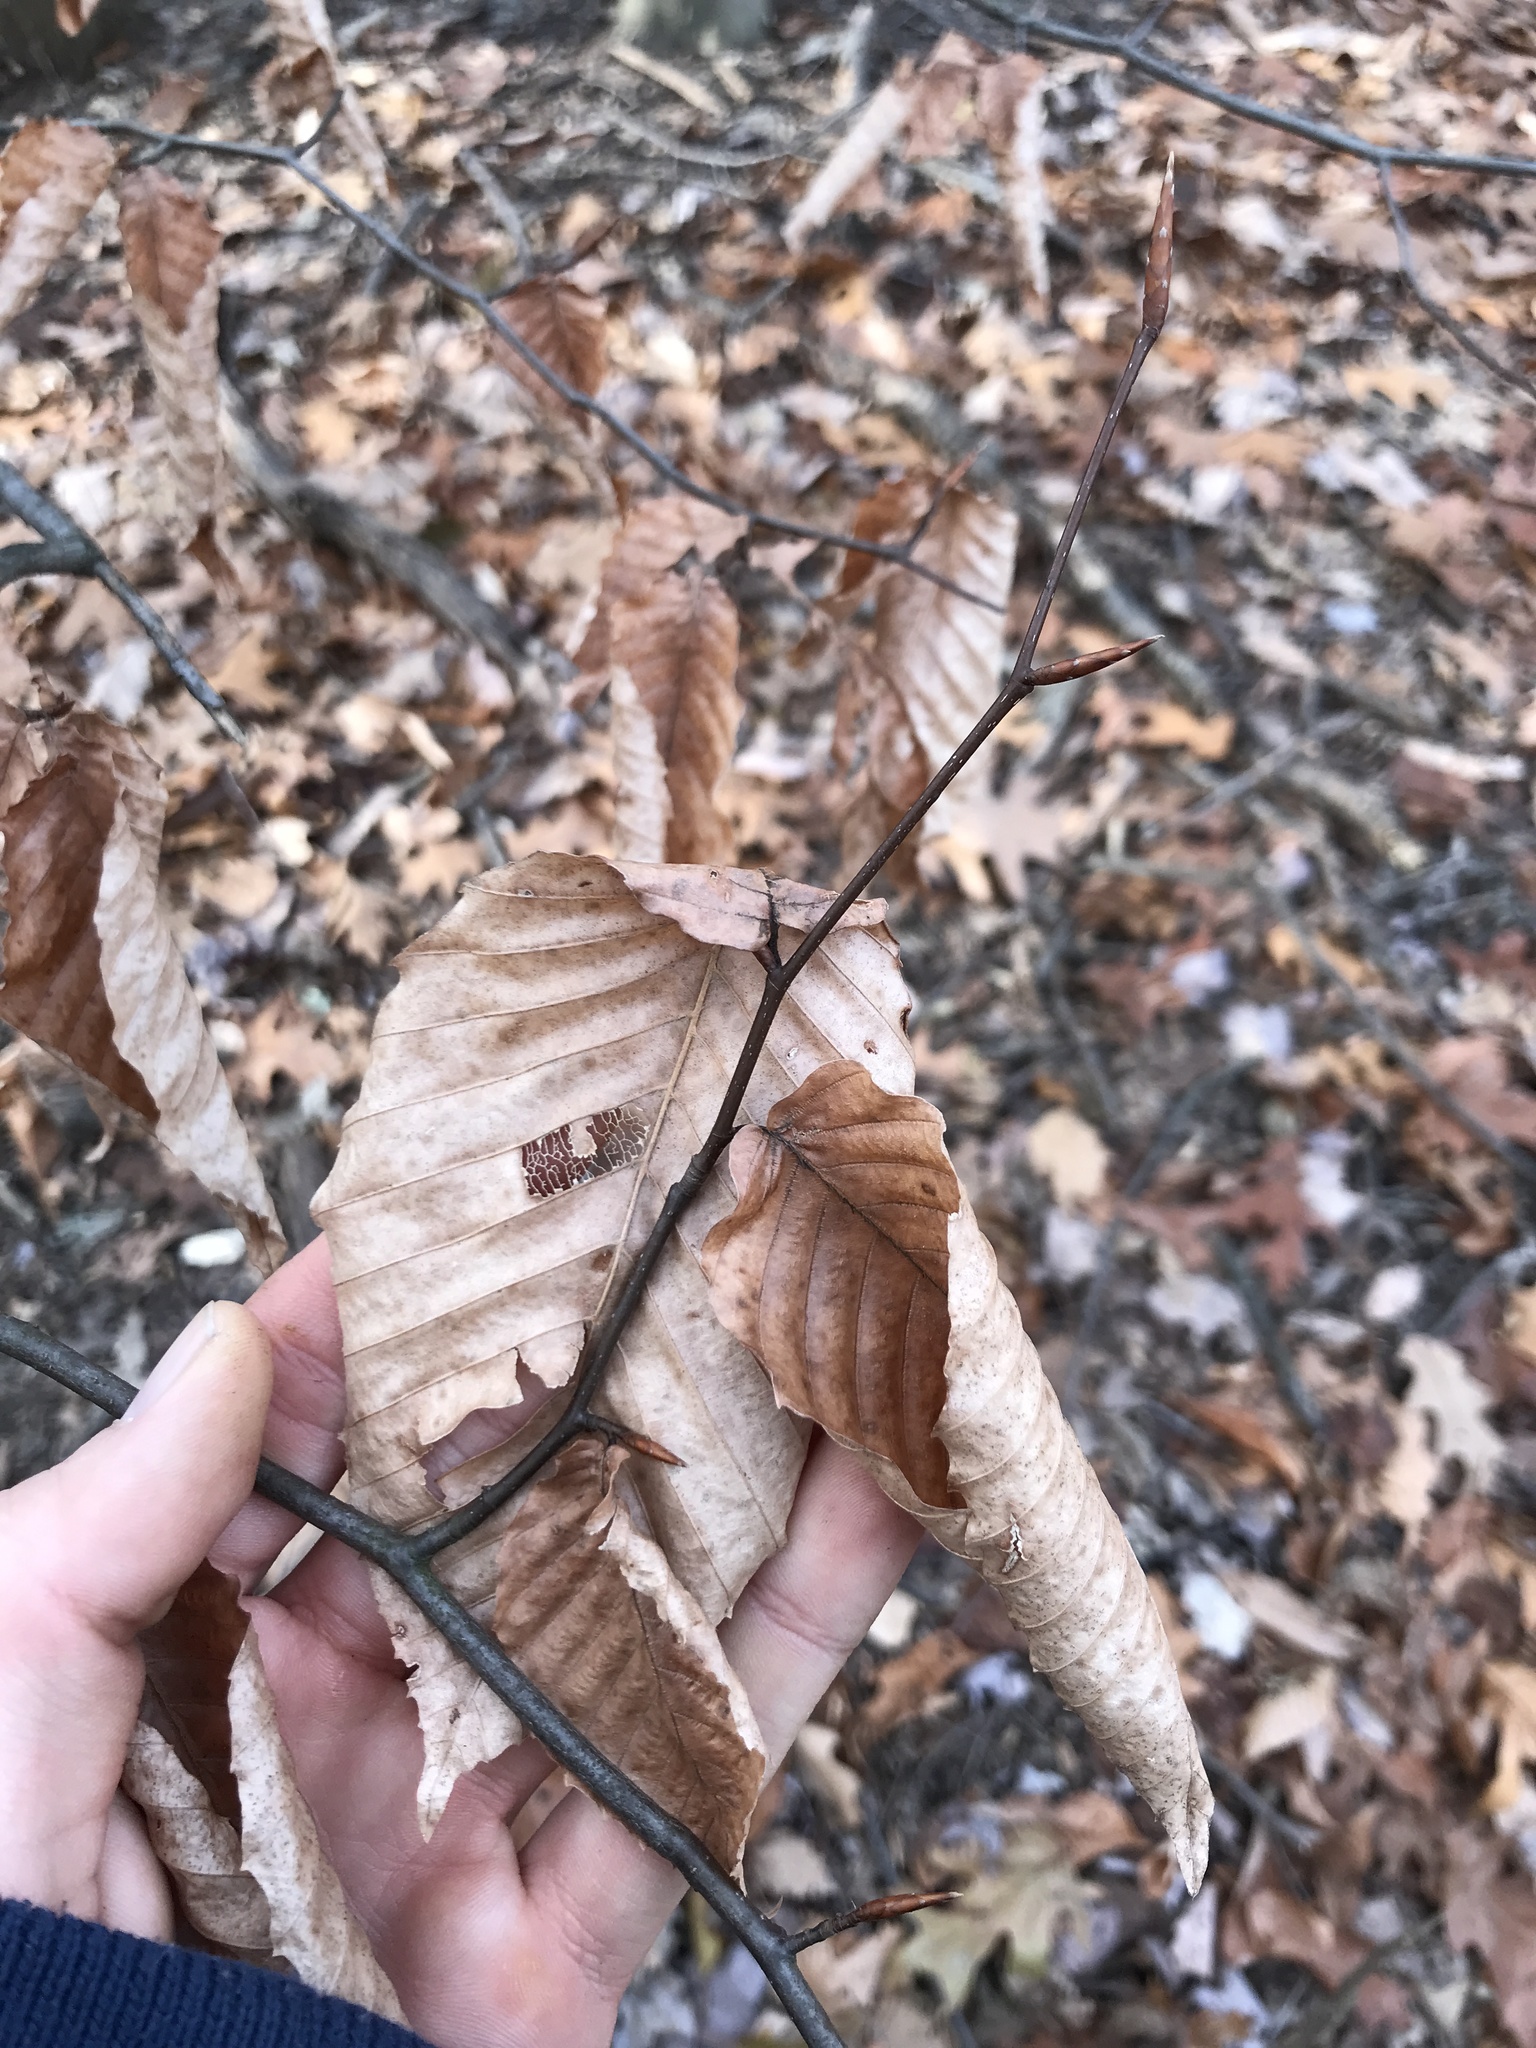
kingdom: Plantae
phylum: Tracheophyta
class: Magnoliopsida
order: Fagales
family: Fagaceae
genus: Fagus
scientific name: Fagus grandifolia
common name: American beech
